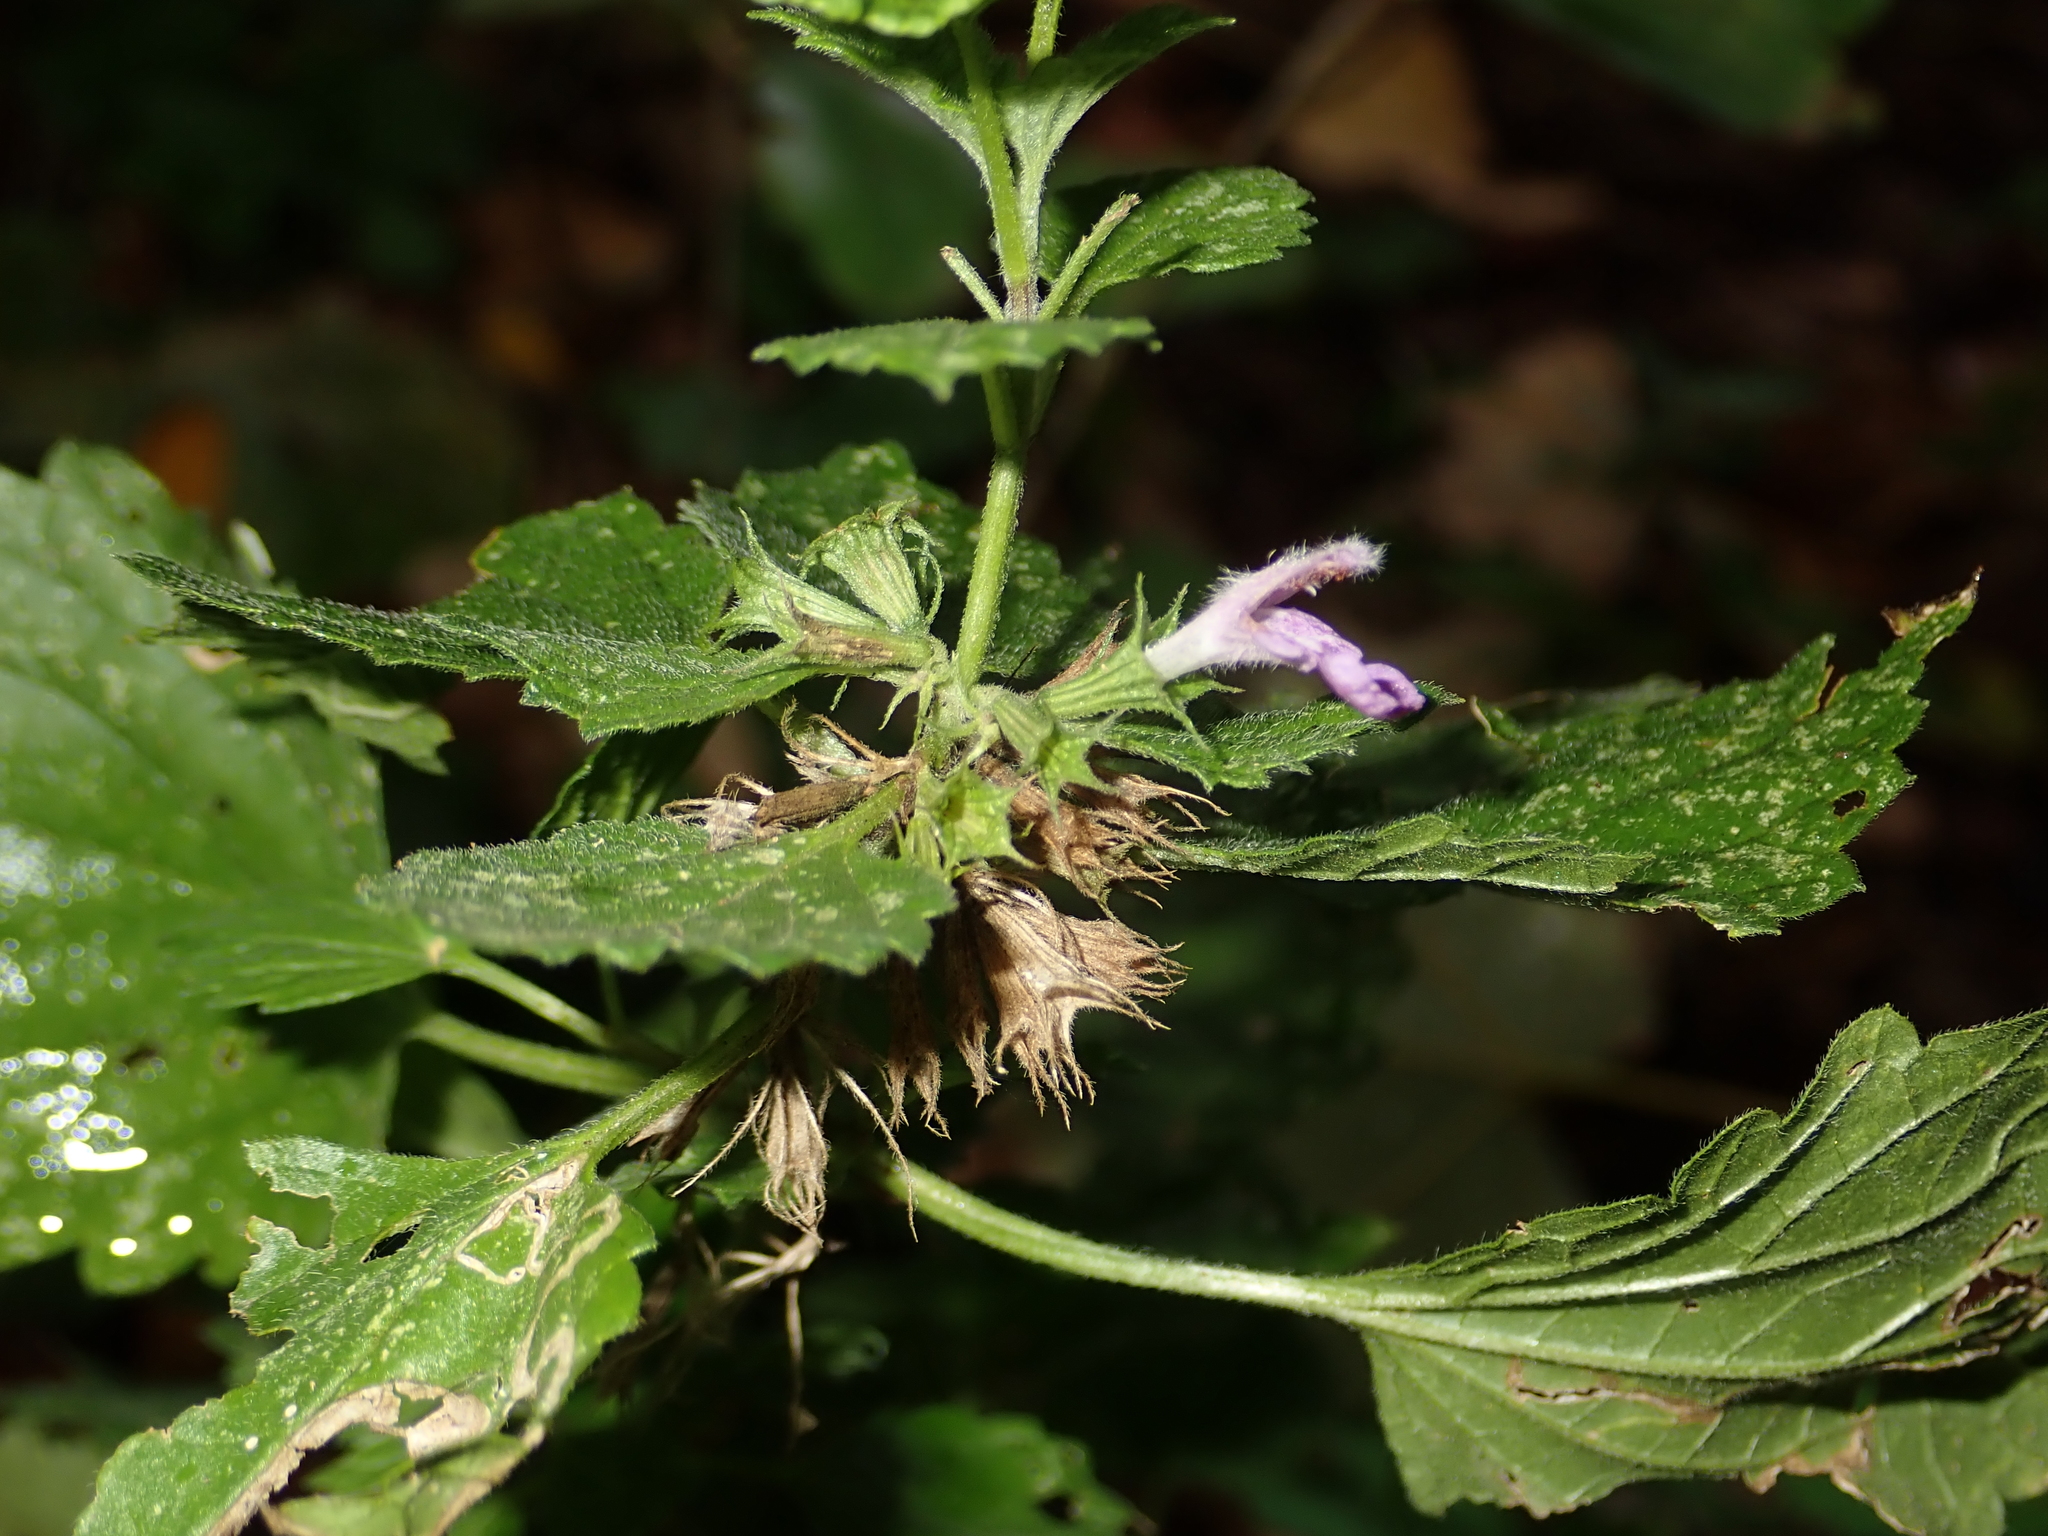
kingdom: Plantae
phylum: Tracheophyta
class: Magnoliopsida
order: Lamiales
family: Lamiaceae
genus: Ballota
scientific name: Ballota nigra
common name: Black horehound
